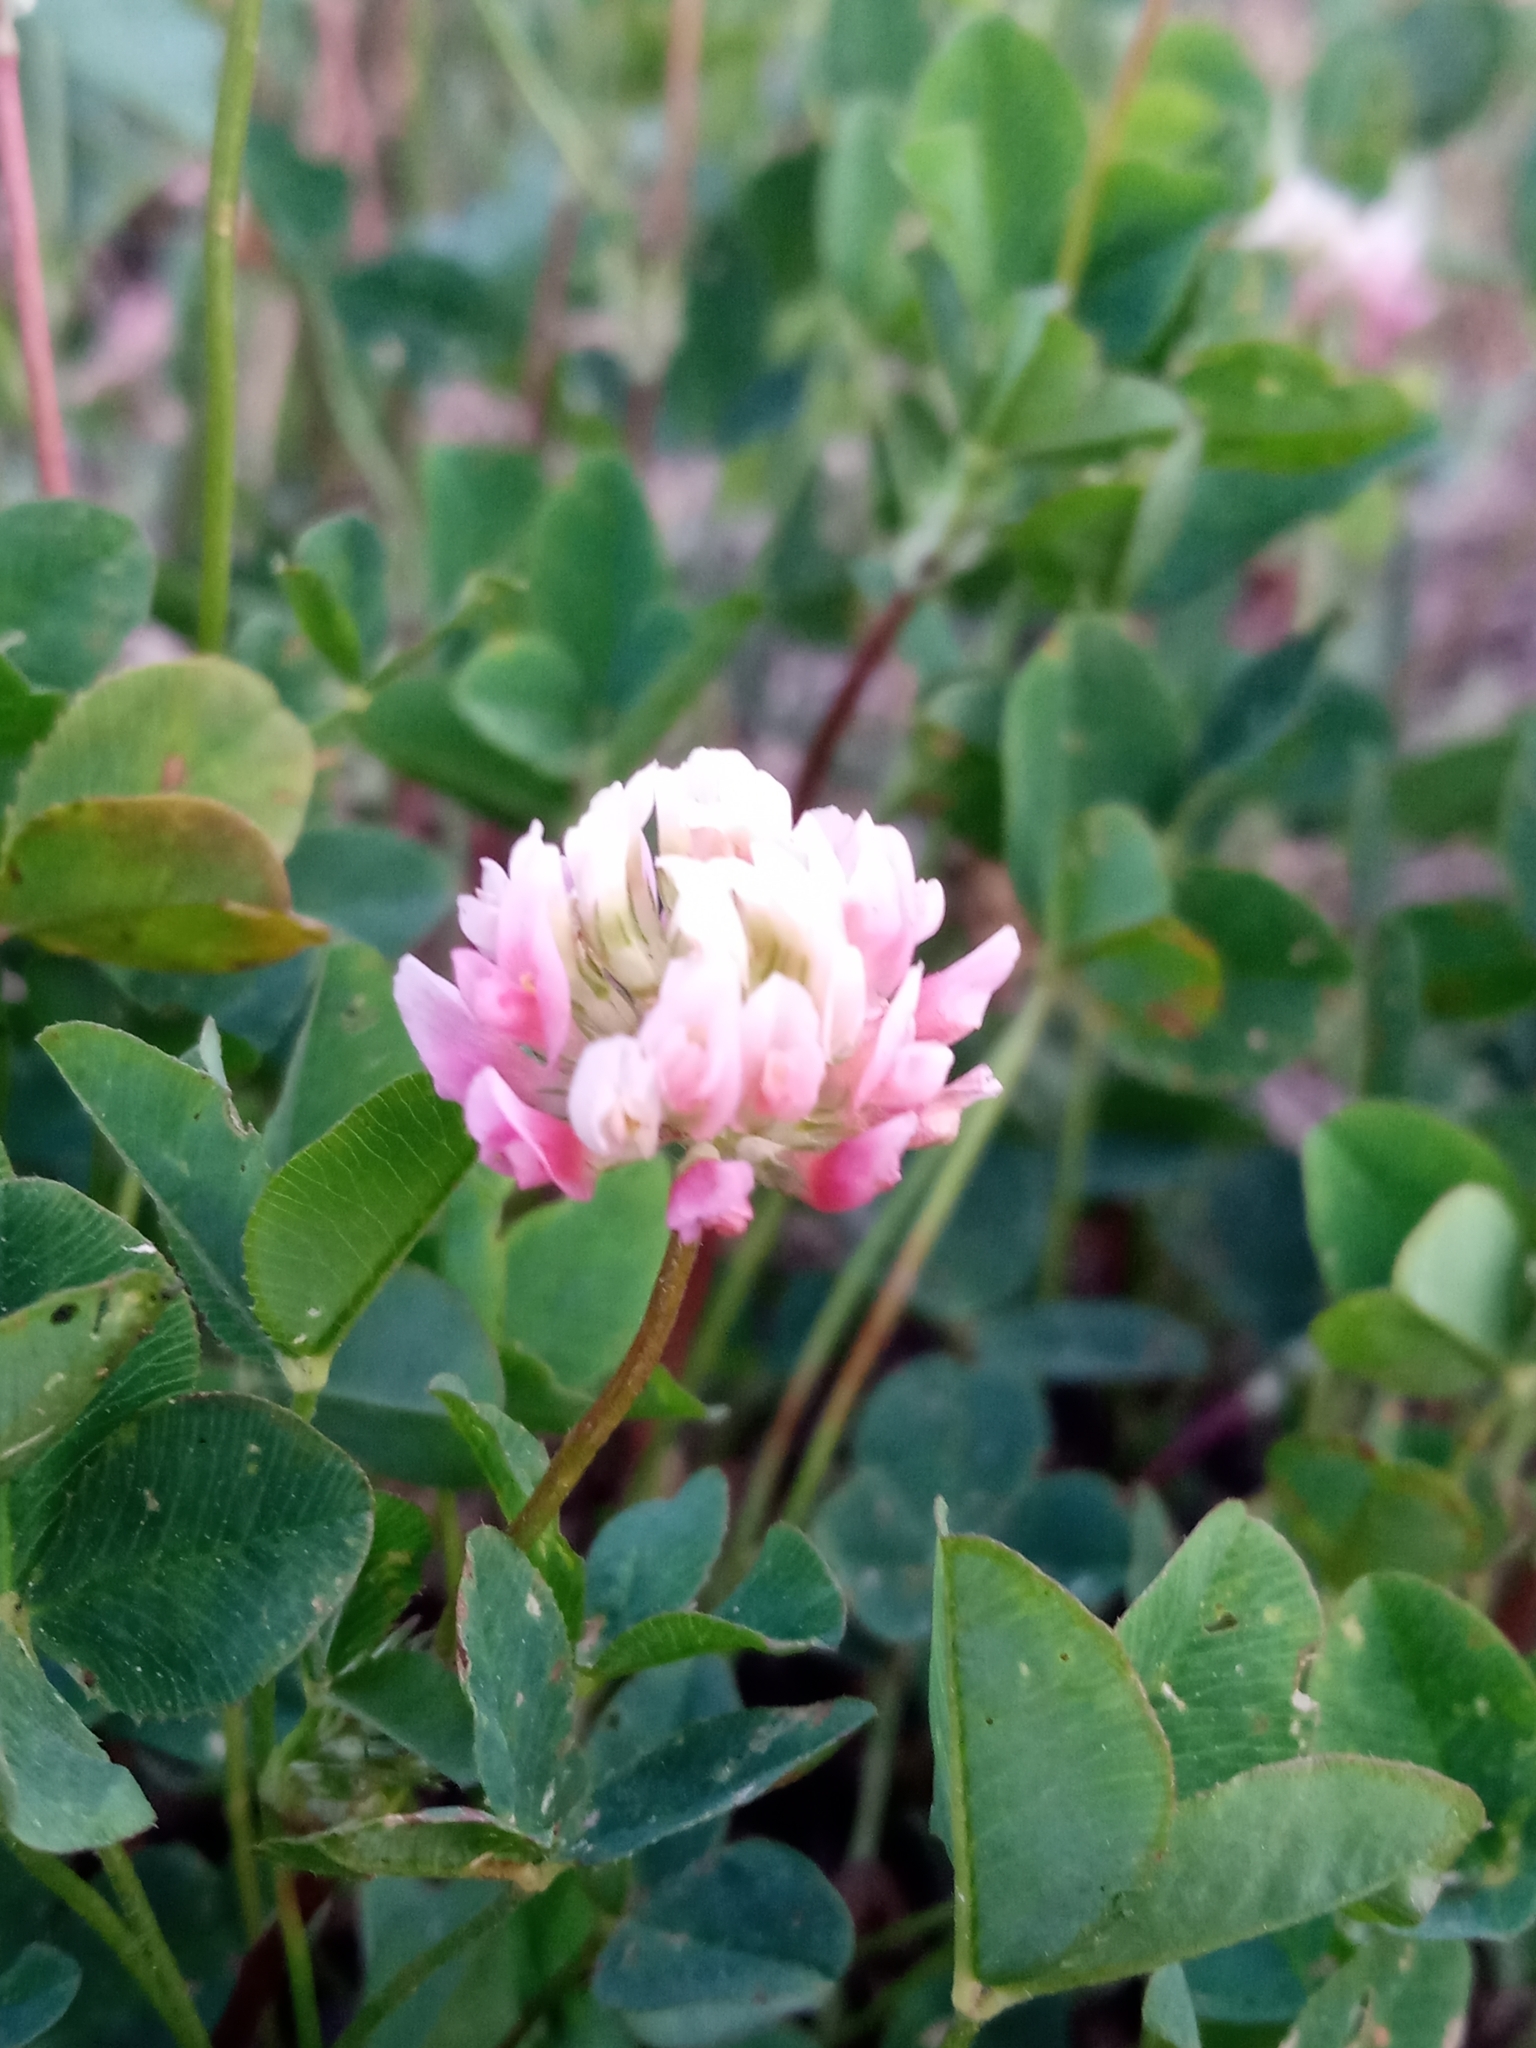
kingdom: Plantae
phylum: Tracheophyta
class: Magnoliopsida
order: Fabales
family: Fabaceae
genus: Trifolium
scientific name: Trifolium hybridum
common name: Alsike clover
